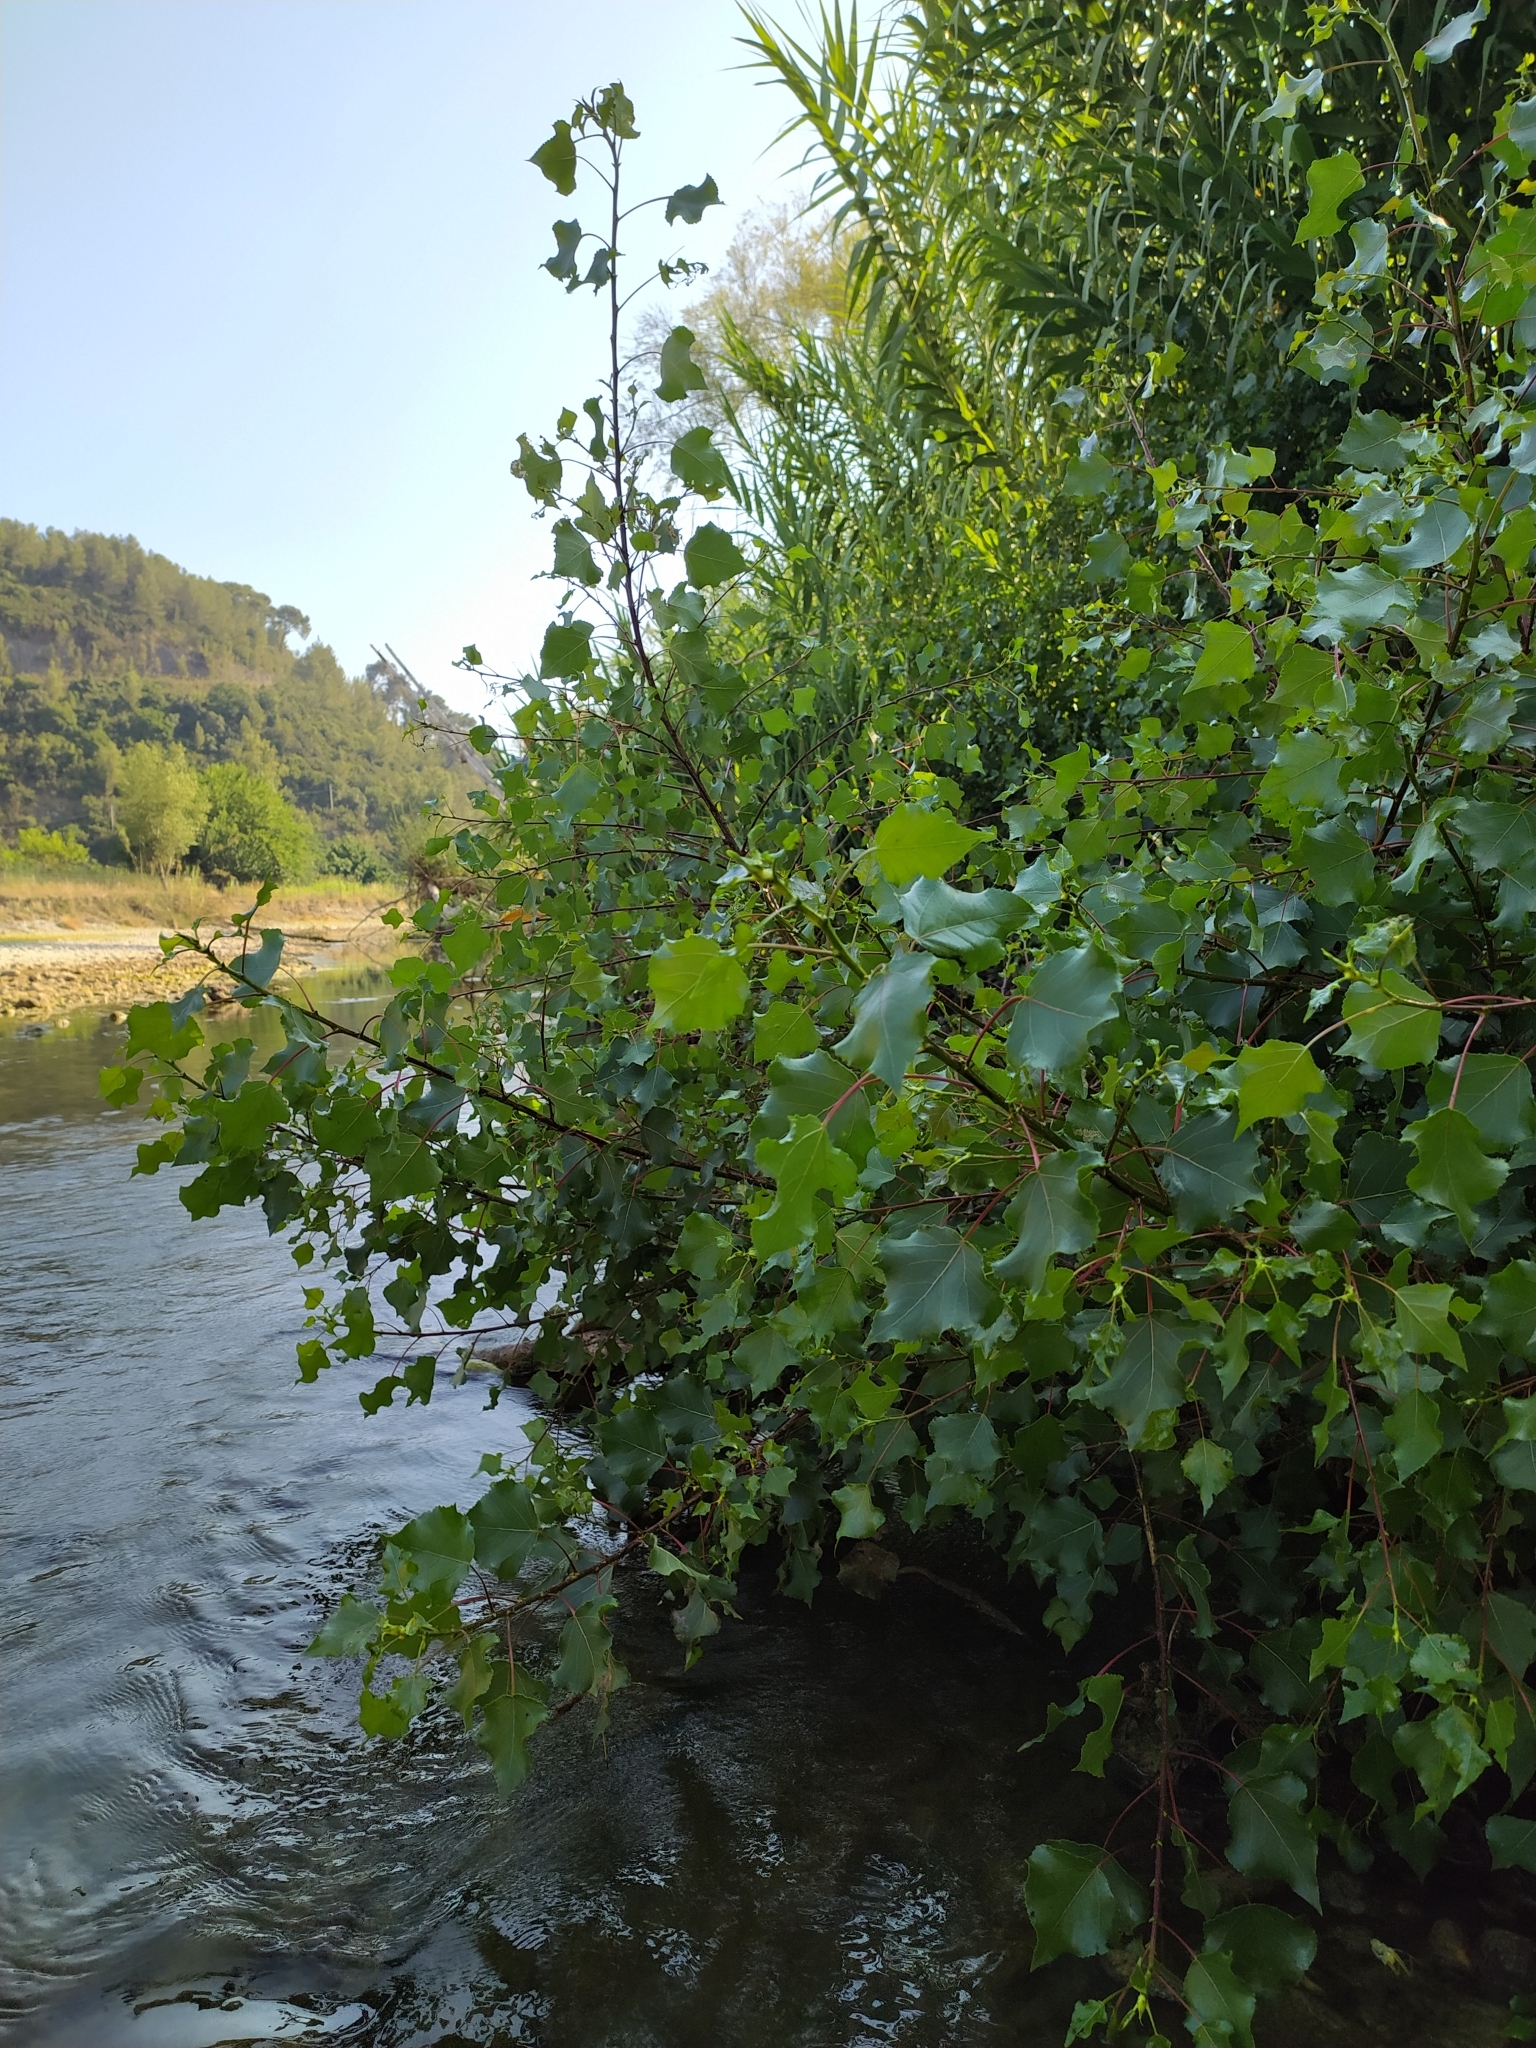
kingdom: Plantae
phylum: Tracheophyta
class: Magnoliopsida
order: Malpighiales
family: Salicaceae
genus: Populus
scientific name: Populus nigra
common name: Black poplar
